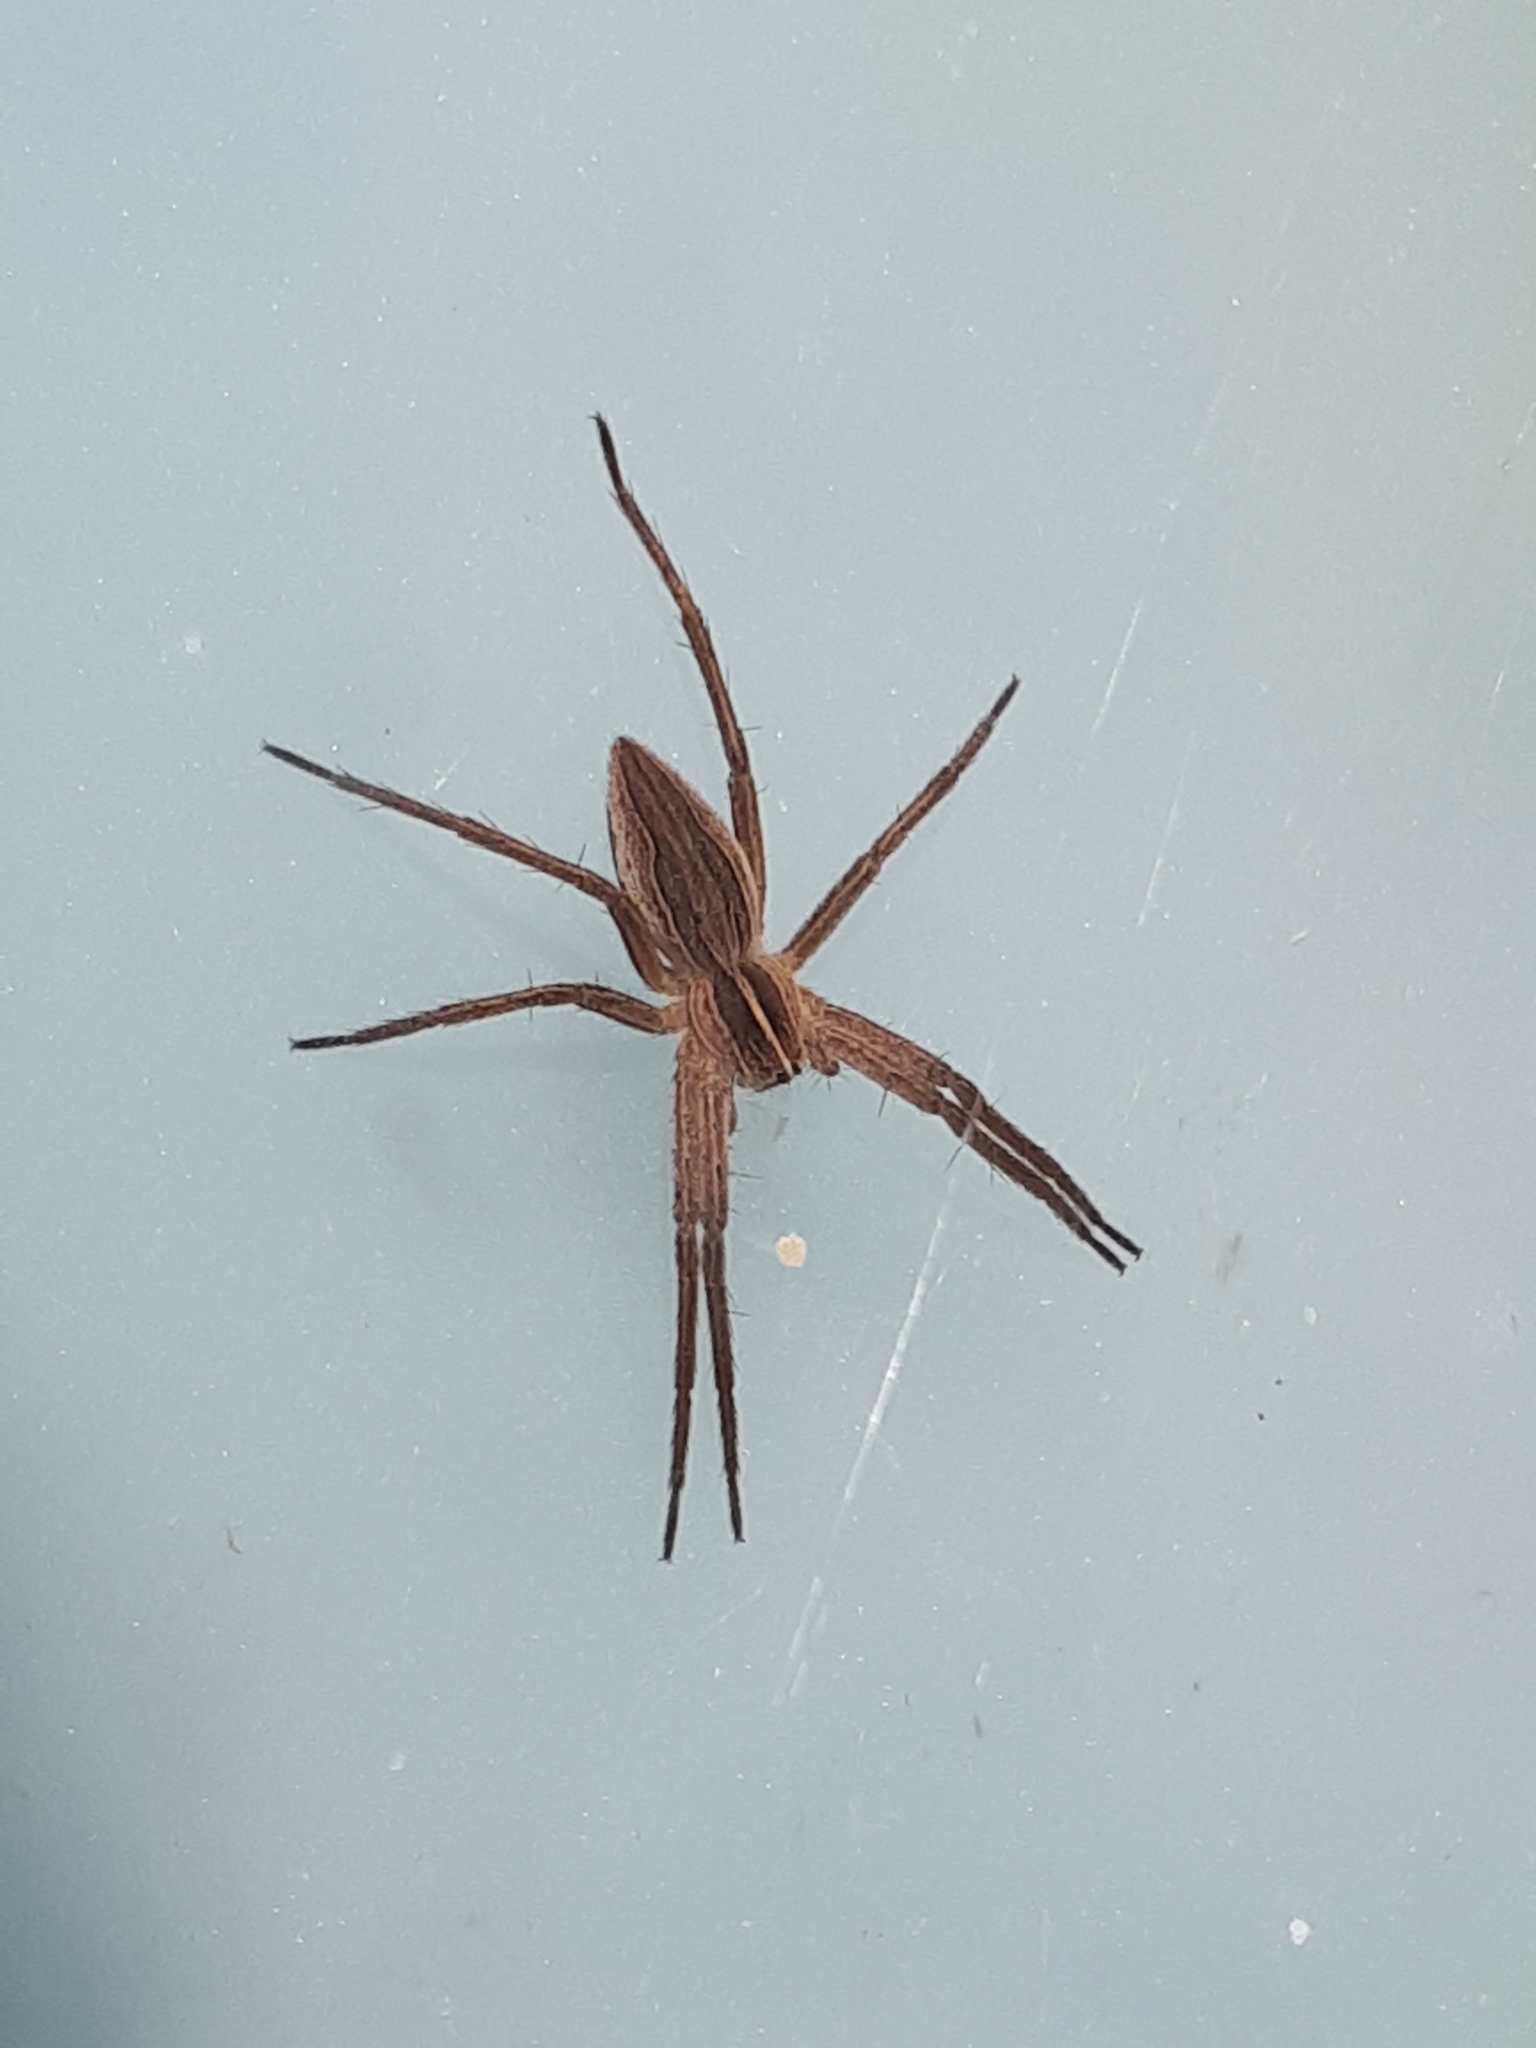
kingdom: Animalia
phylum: Arthropoda
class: Arachnida
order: Araneae
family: Pisauridae
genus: Pisaura
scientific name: Pisaura mirabilis
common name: Tent spider
